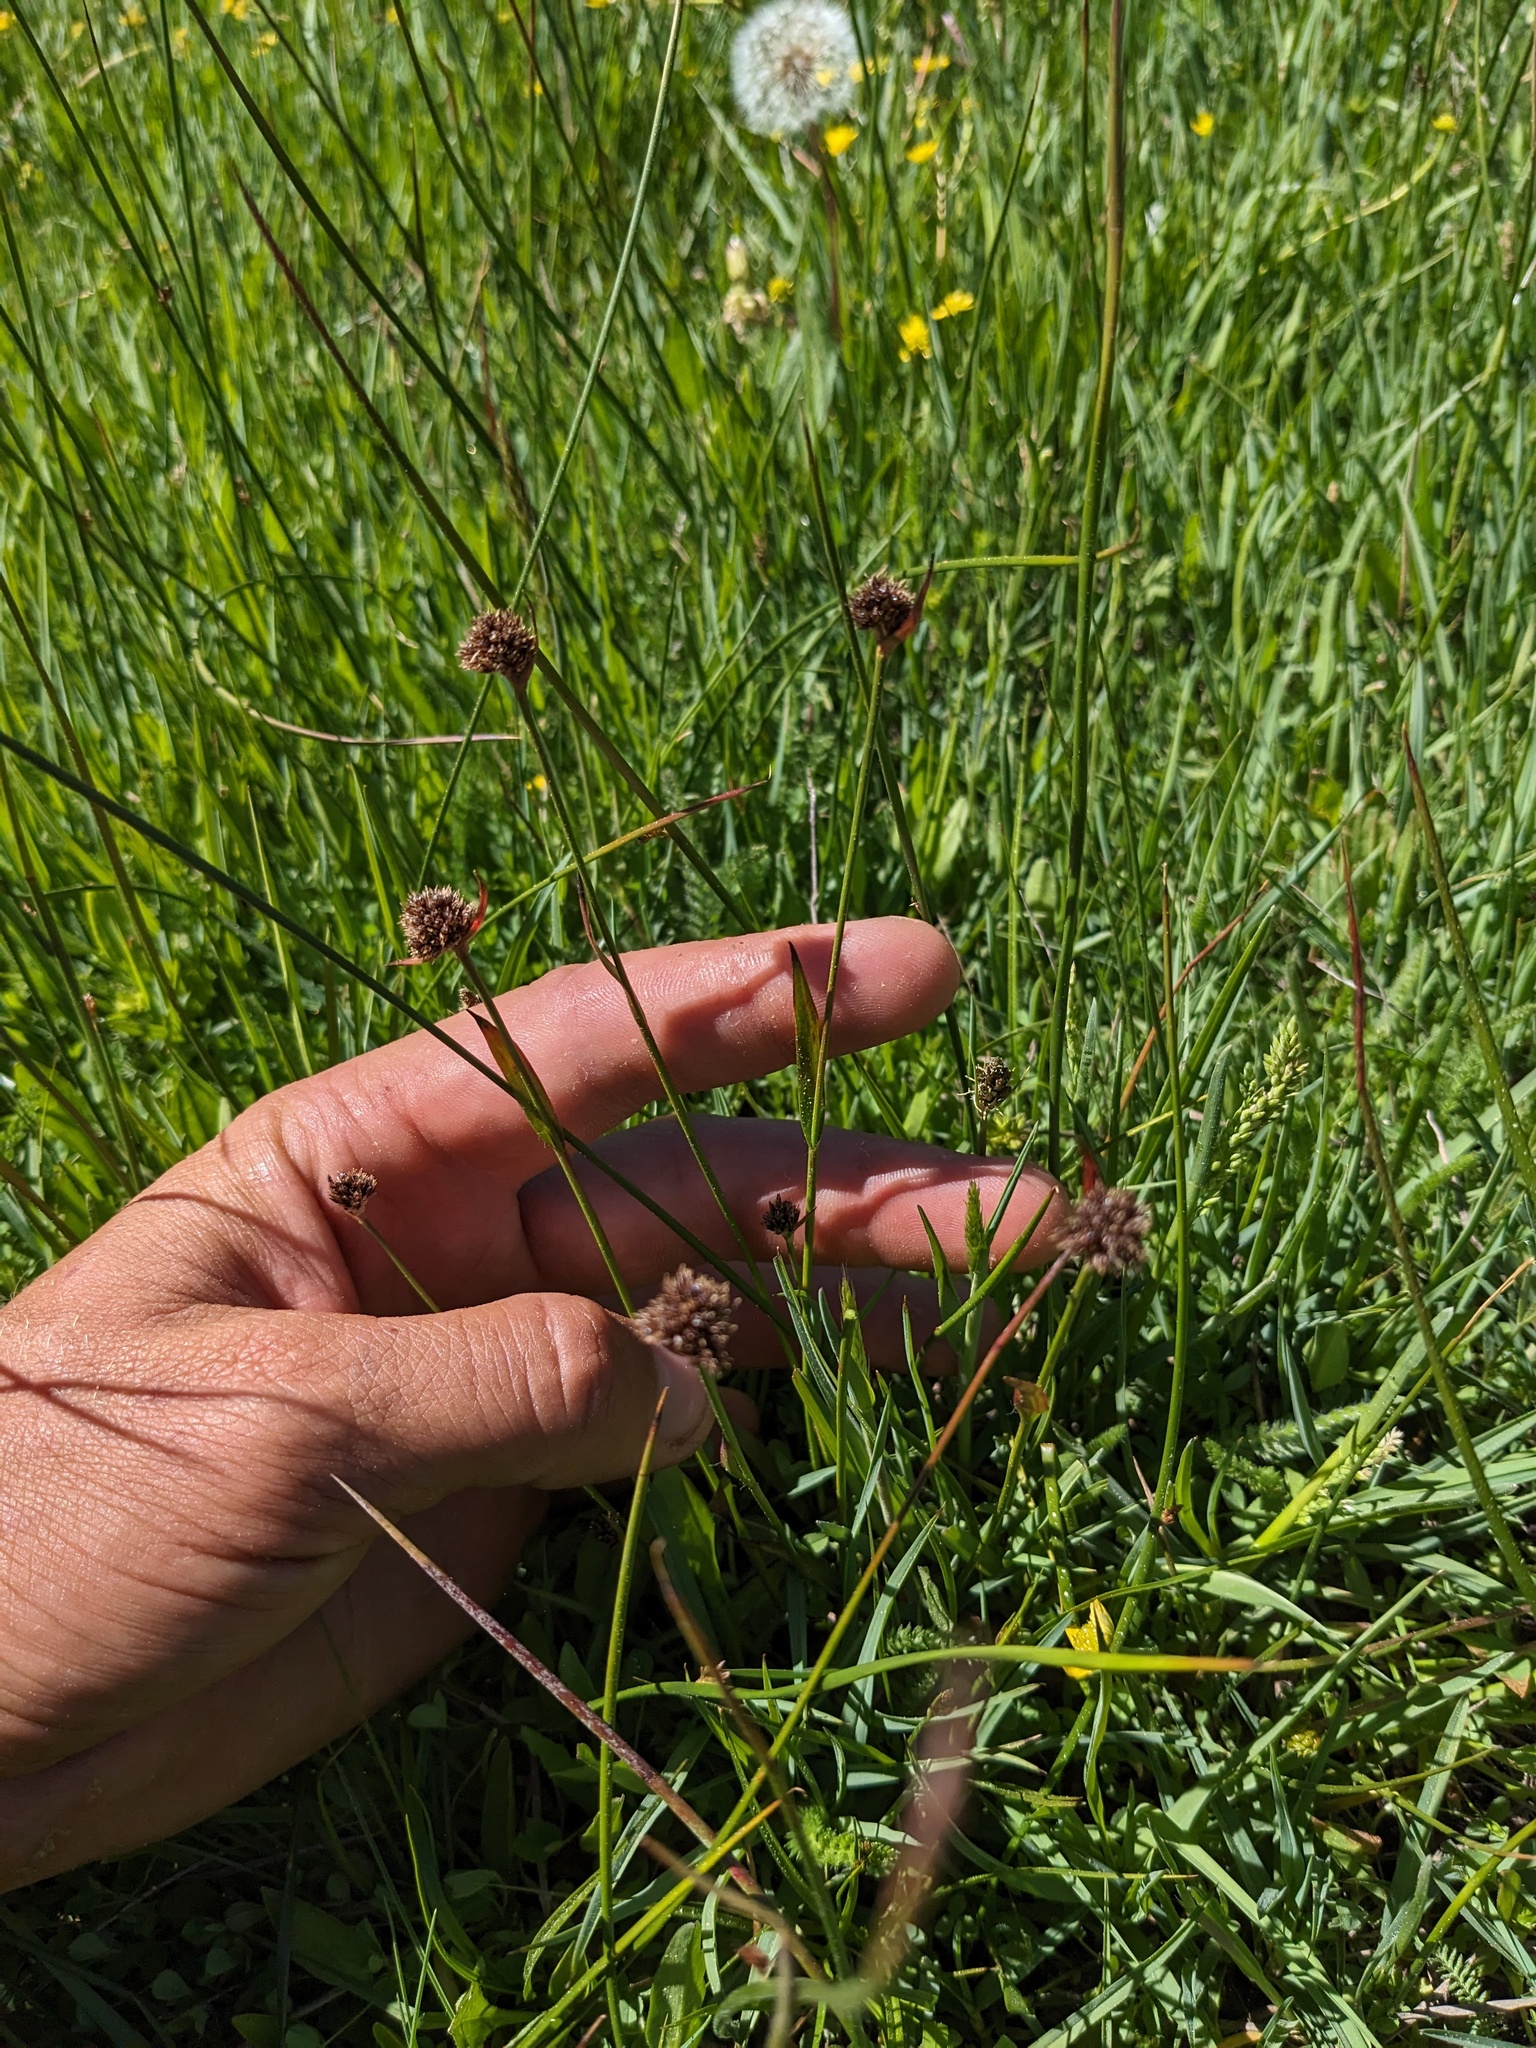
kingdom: Plantae
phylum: Tracheophyta
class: Liliopsida
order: Poales
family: Juncaceae
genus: Luzula
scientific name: Luzula orestera
